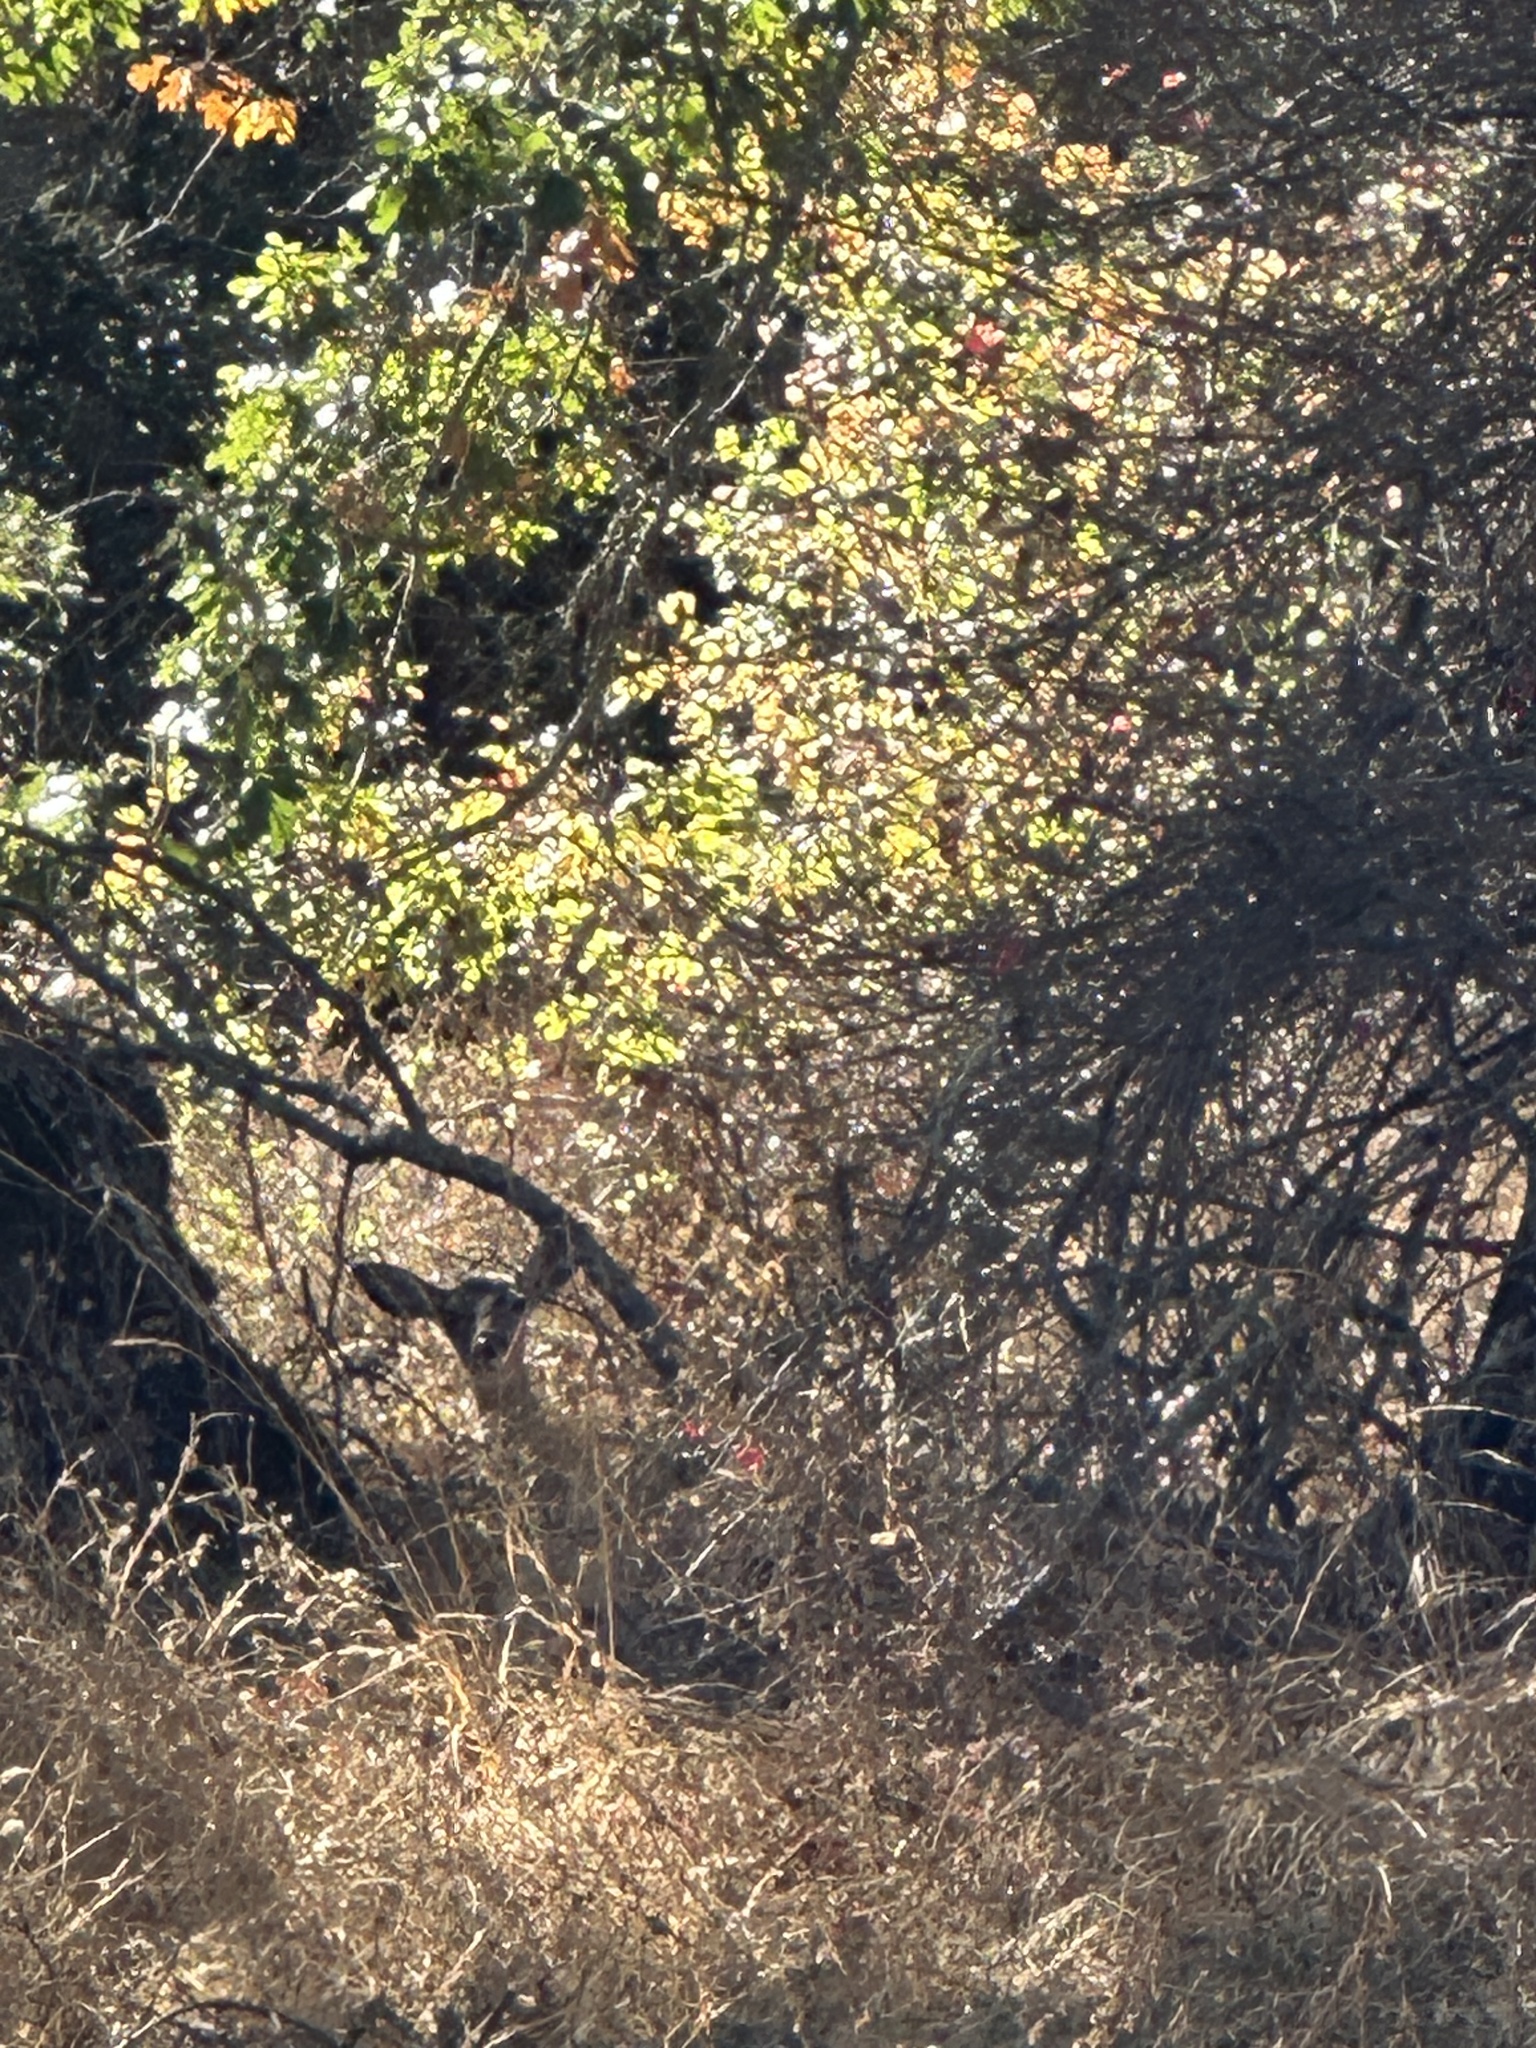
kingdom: Animalia
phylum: Chordata
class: Mammalia
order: Artiodactyla
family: Cervidae
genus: Odocoileus
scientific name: Odocoileus hemionus
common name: Mule deer
